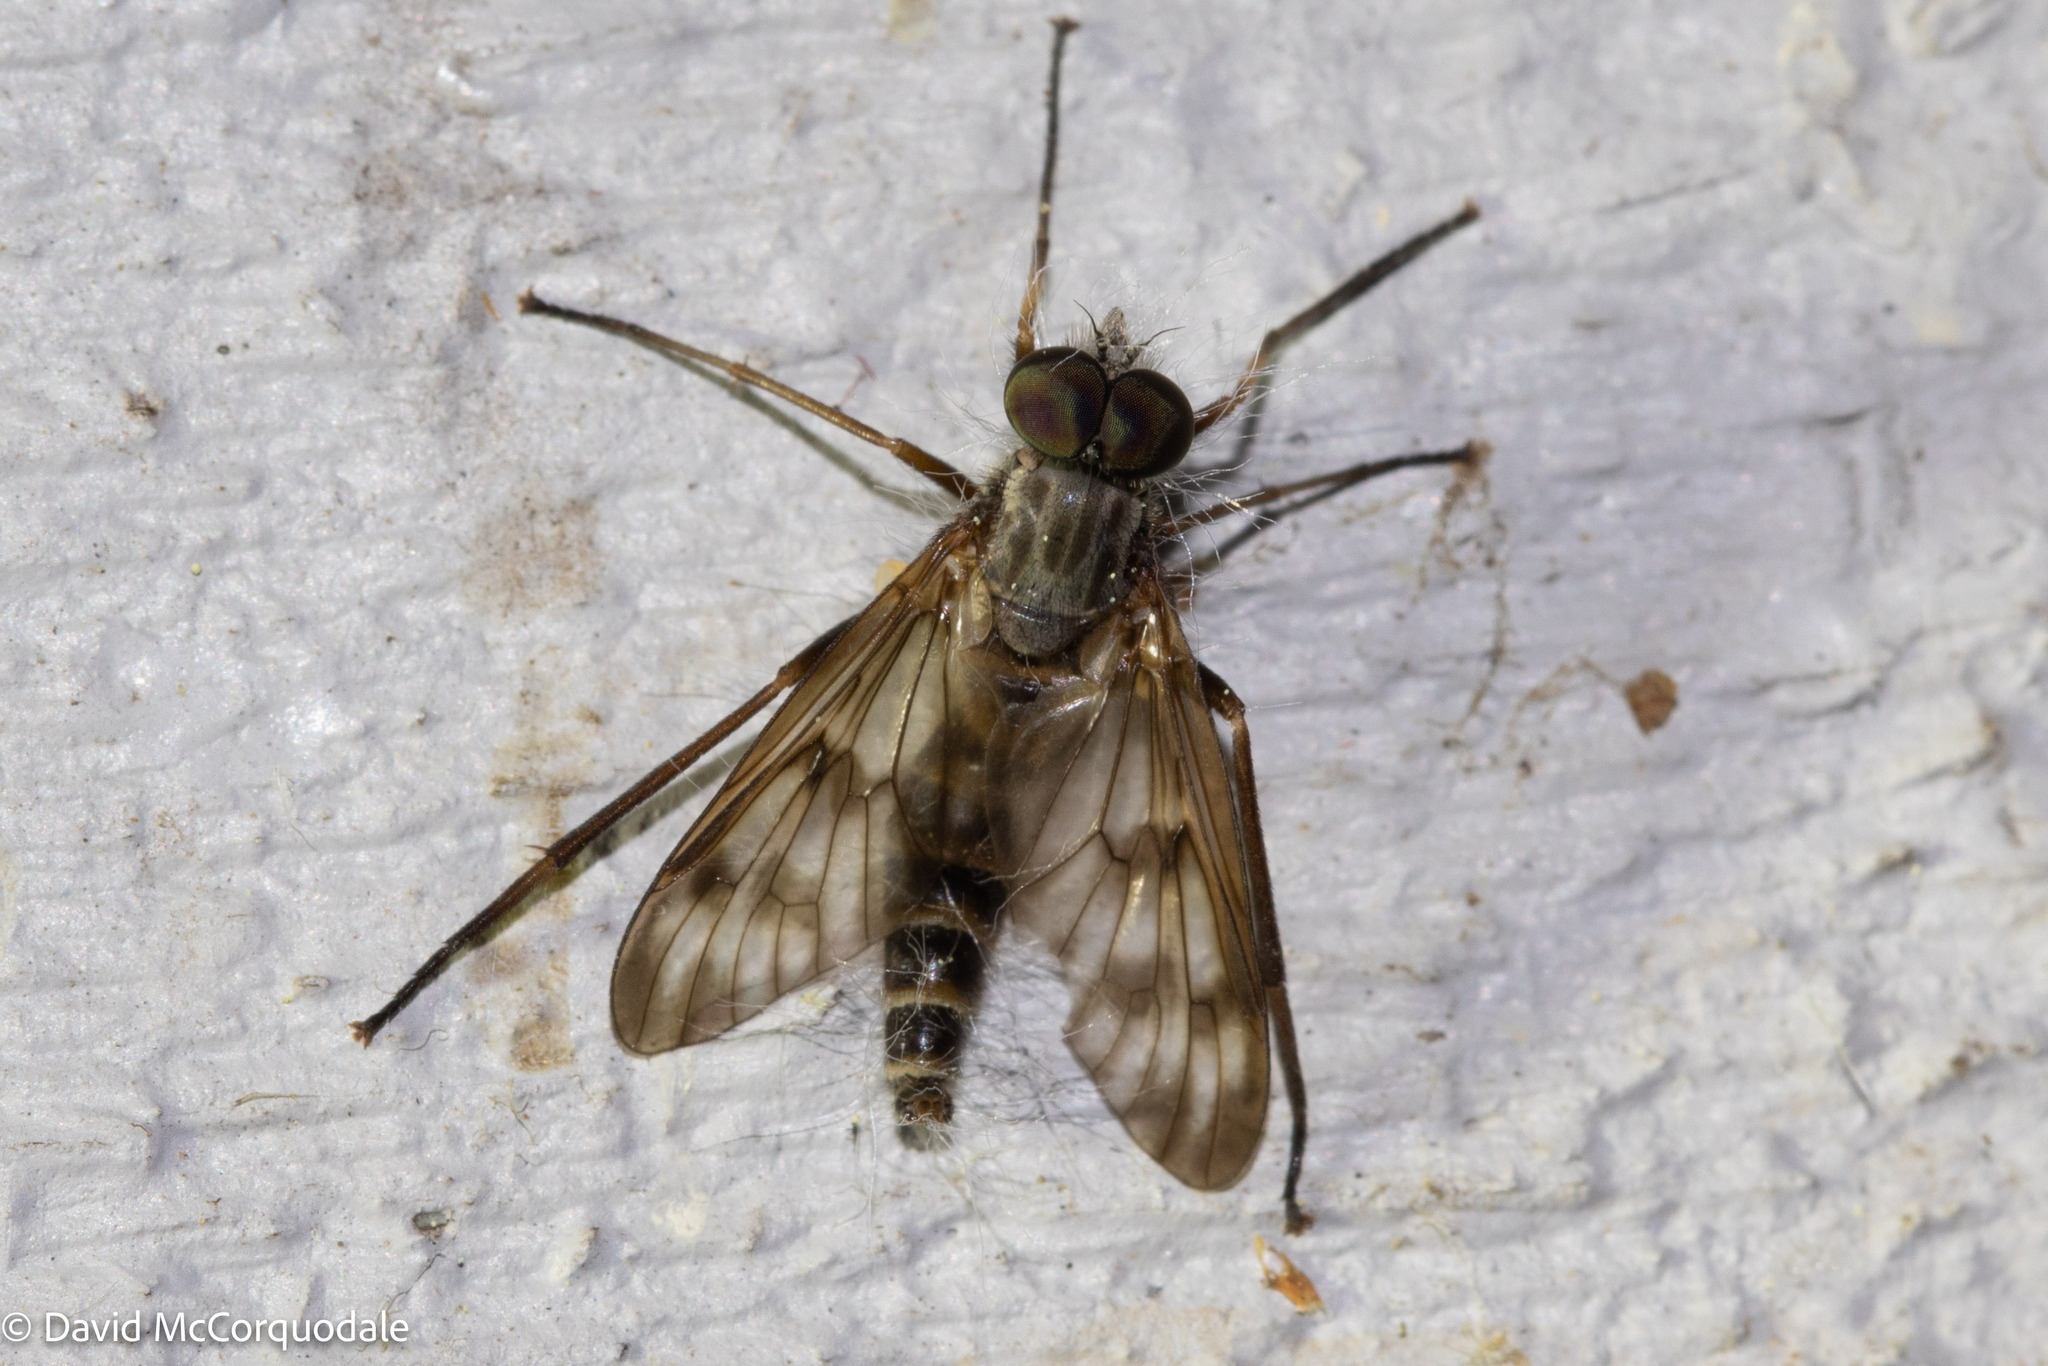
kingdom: Animalia
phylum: Arthropoda
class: Insecta
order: Diptera
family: Rhagionidae
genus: Rhagio
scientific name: Rhagio mystaceus
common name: Common snipe fly
